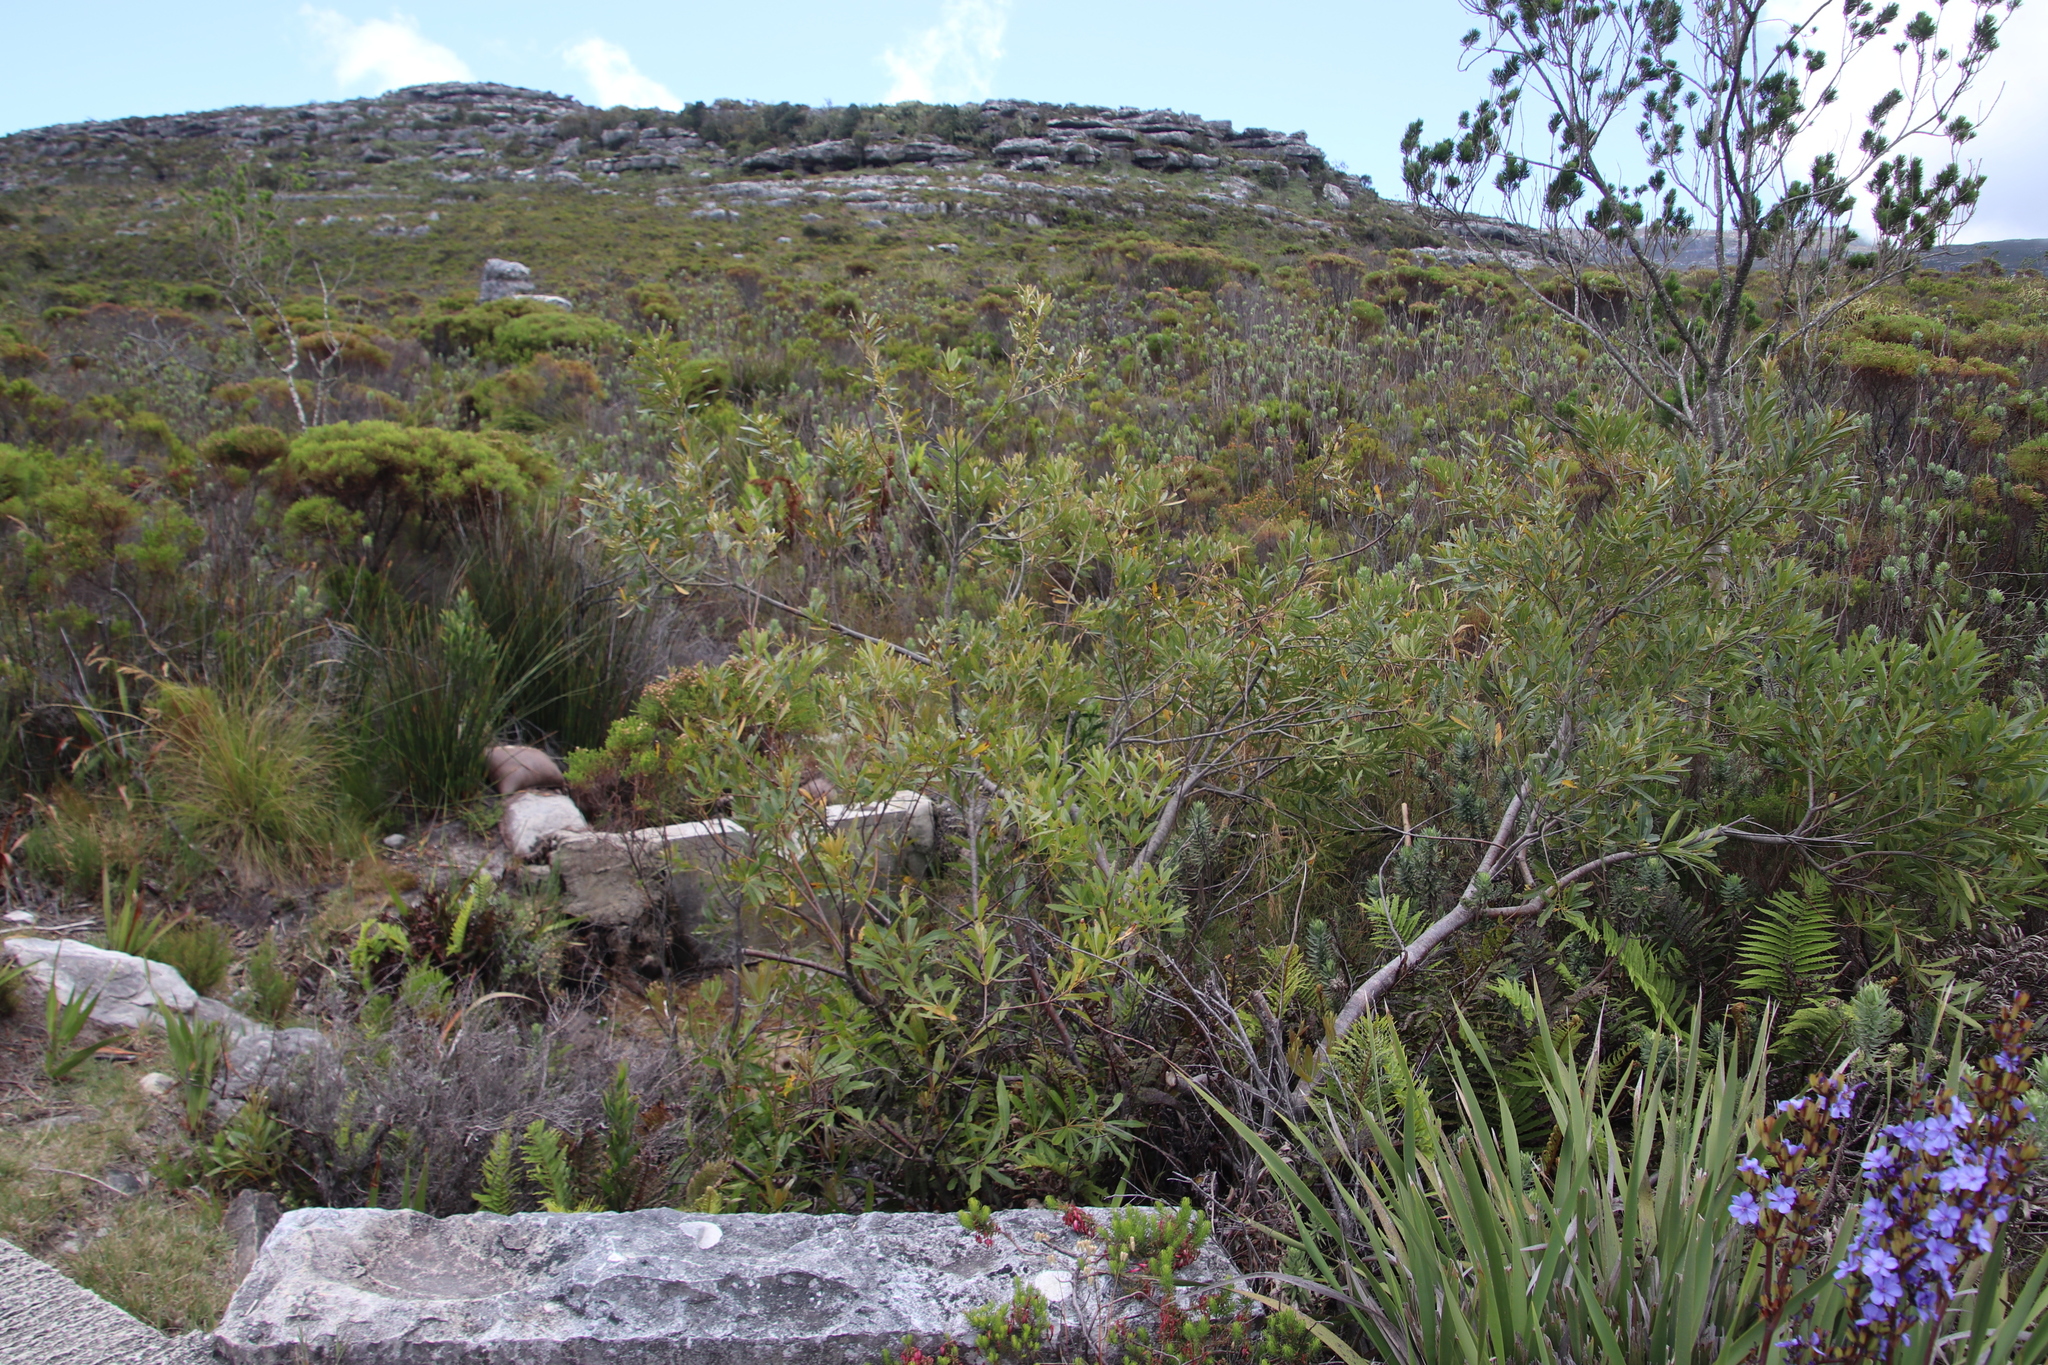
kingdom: Plantae
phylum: Tracheophyta
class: Magnoliopsida
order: Proteales
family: Proteaceae
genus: Brabejum
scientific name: Brabejum stellatifolium
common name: Wild almond
